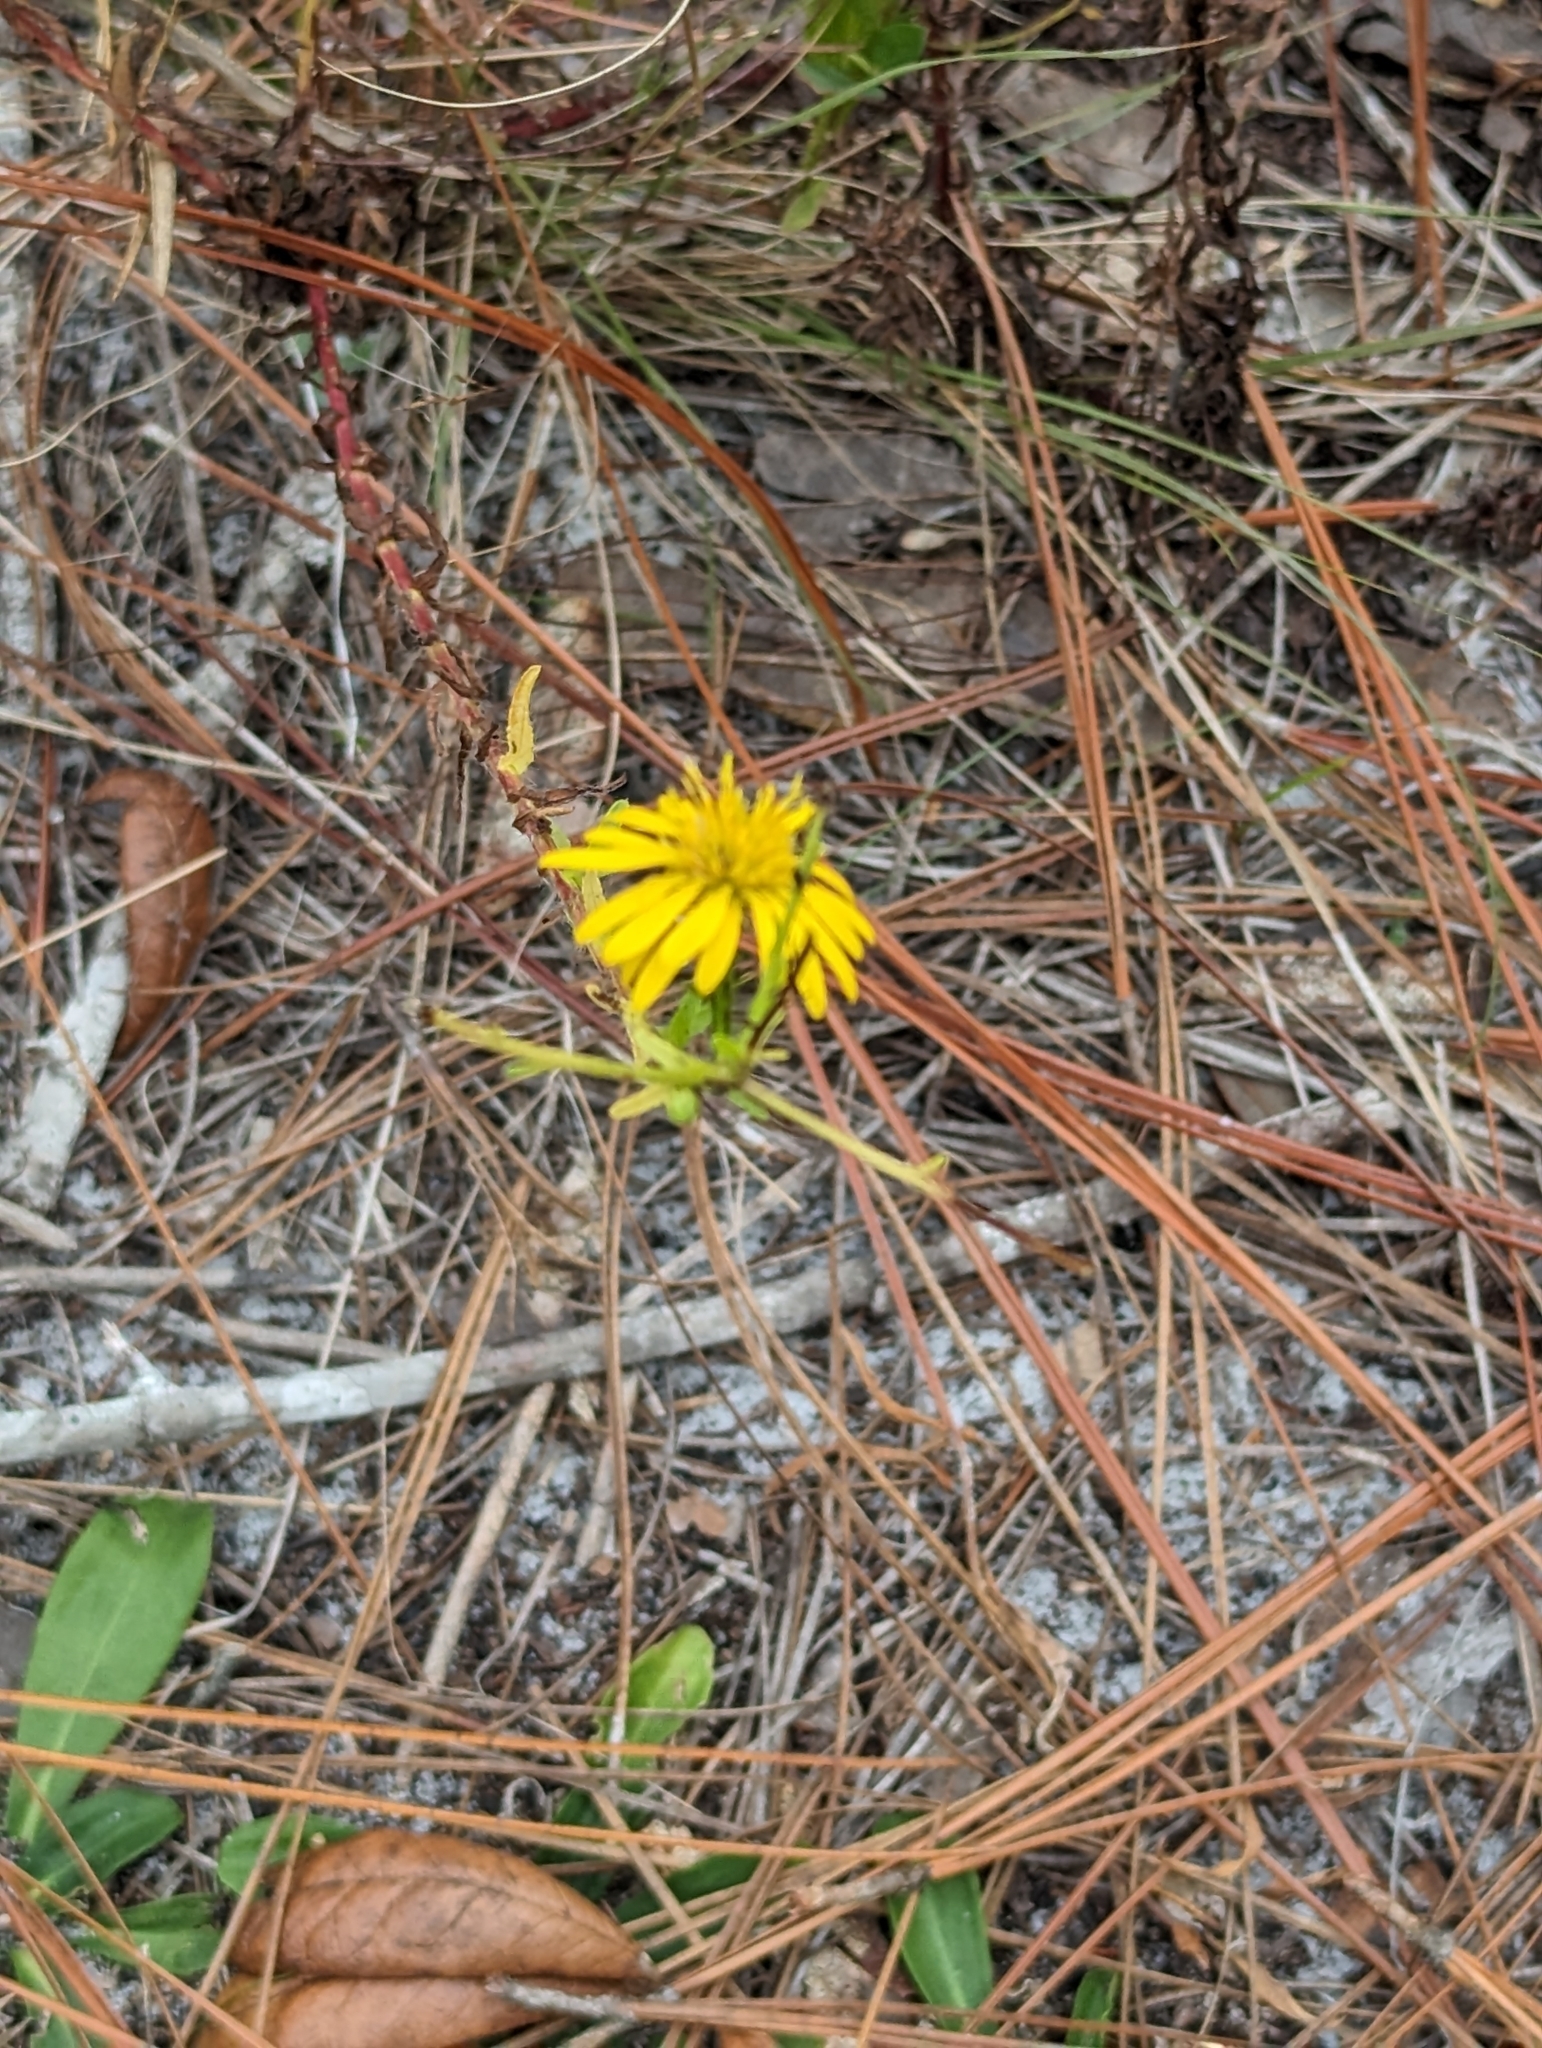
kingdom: Plantae
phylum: Tracheophyta
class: Magnoliopsida
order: Asterales
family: Asteraceae
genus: Chrysopsis
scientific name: Chrysopsis mariana
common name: Maryland golden-aster
